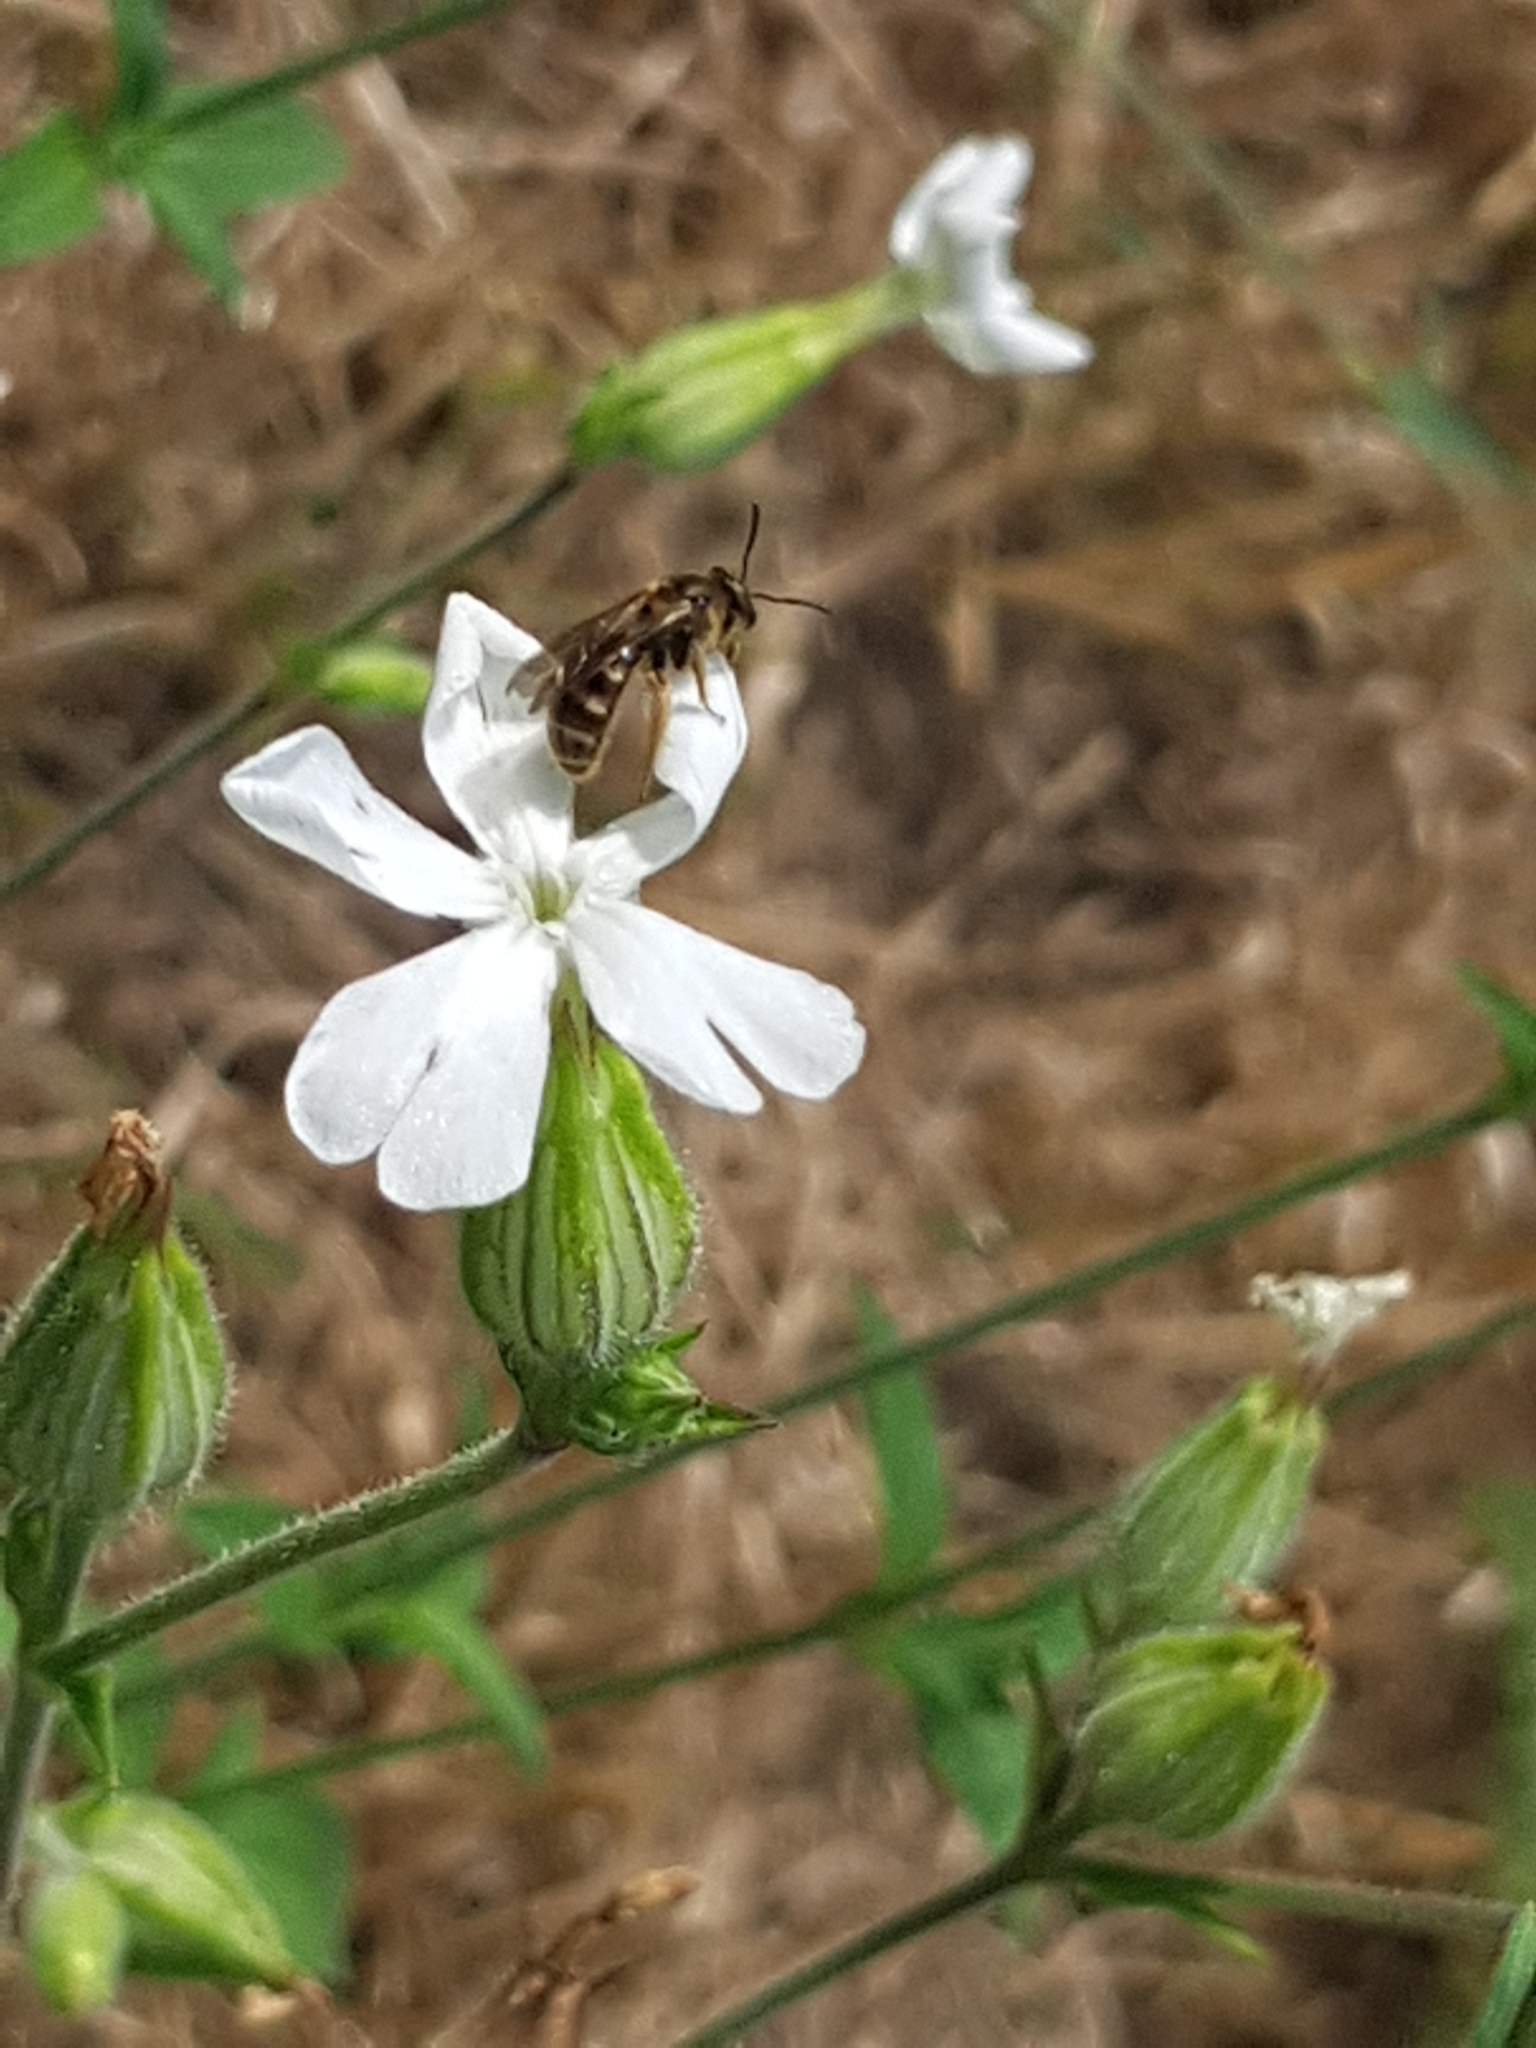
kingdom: Plantae
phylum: Tracheophyta
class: Magnoliopsida
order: Caryophyllales
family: Caryophyllaceae
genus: Silene
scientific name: Silene latifolia
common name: White campion
